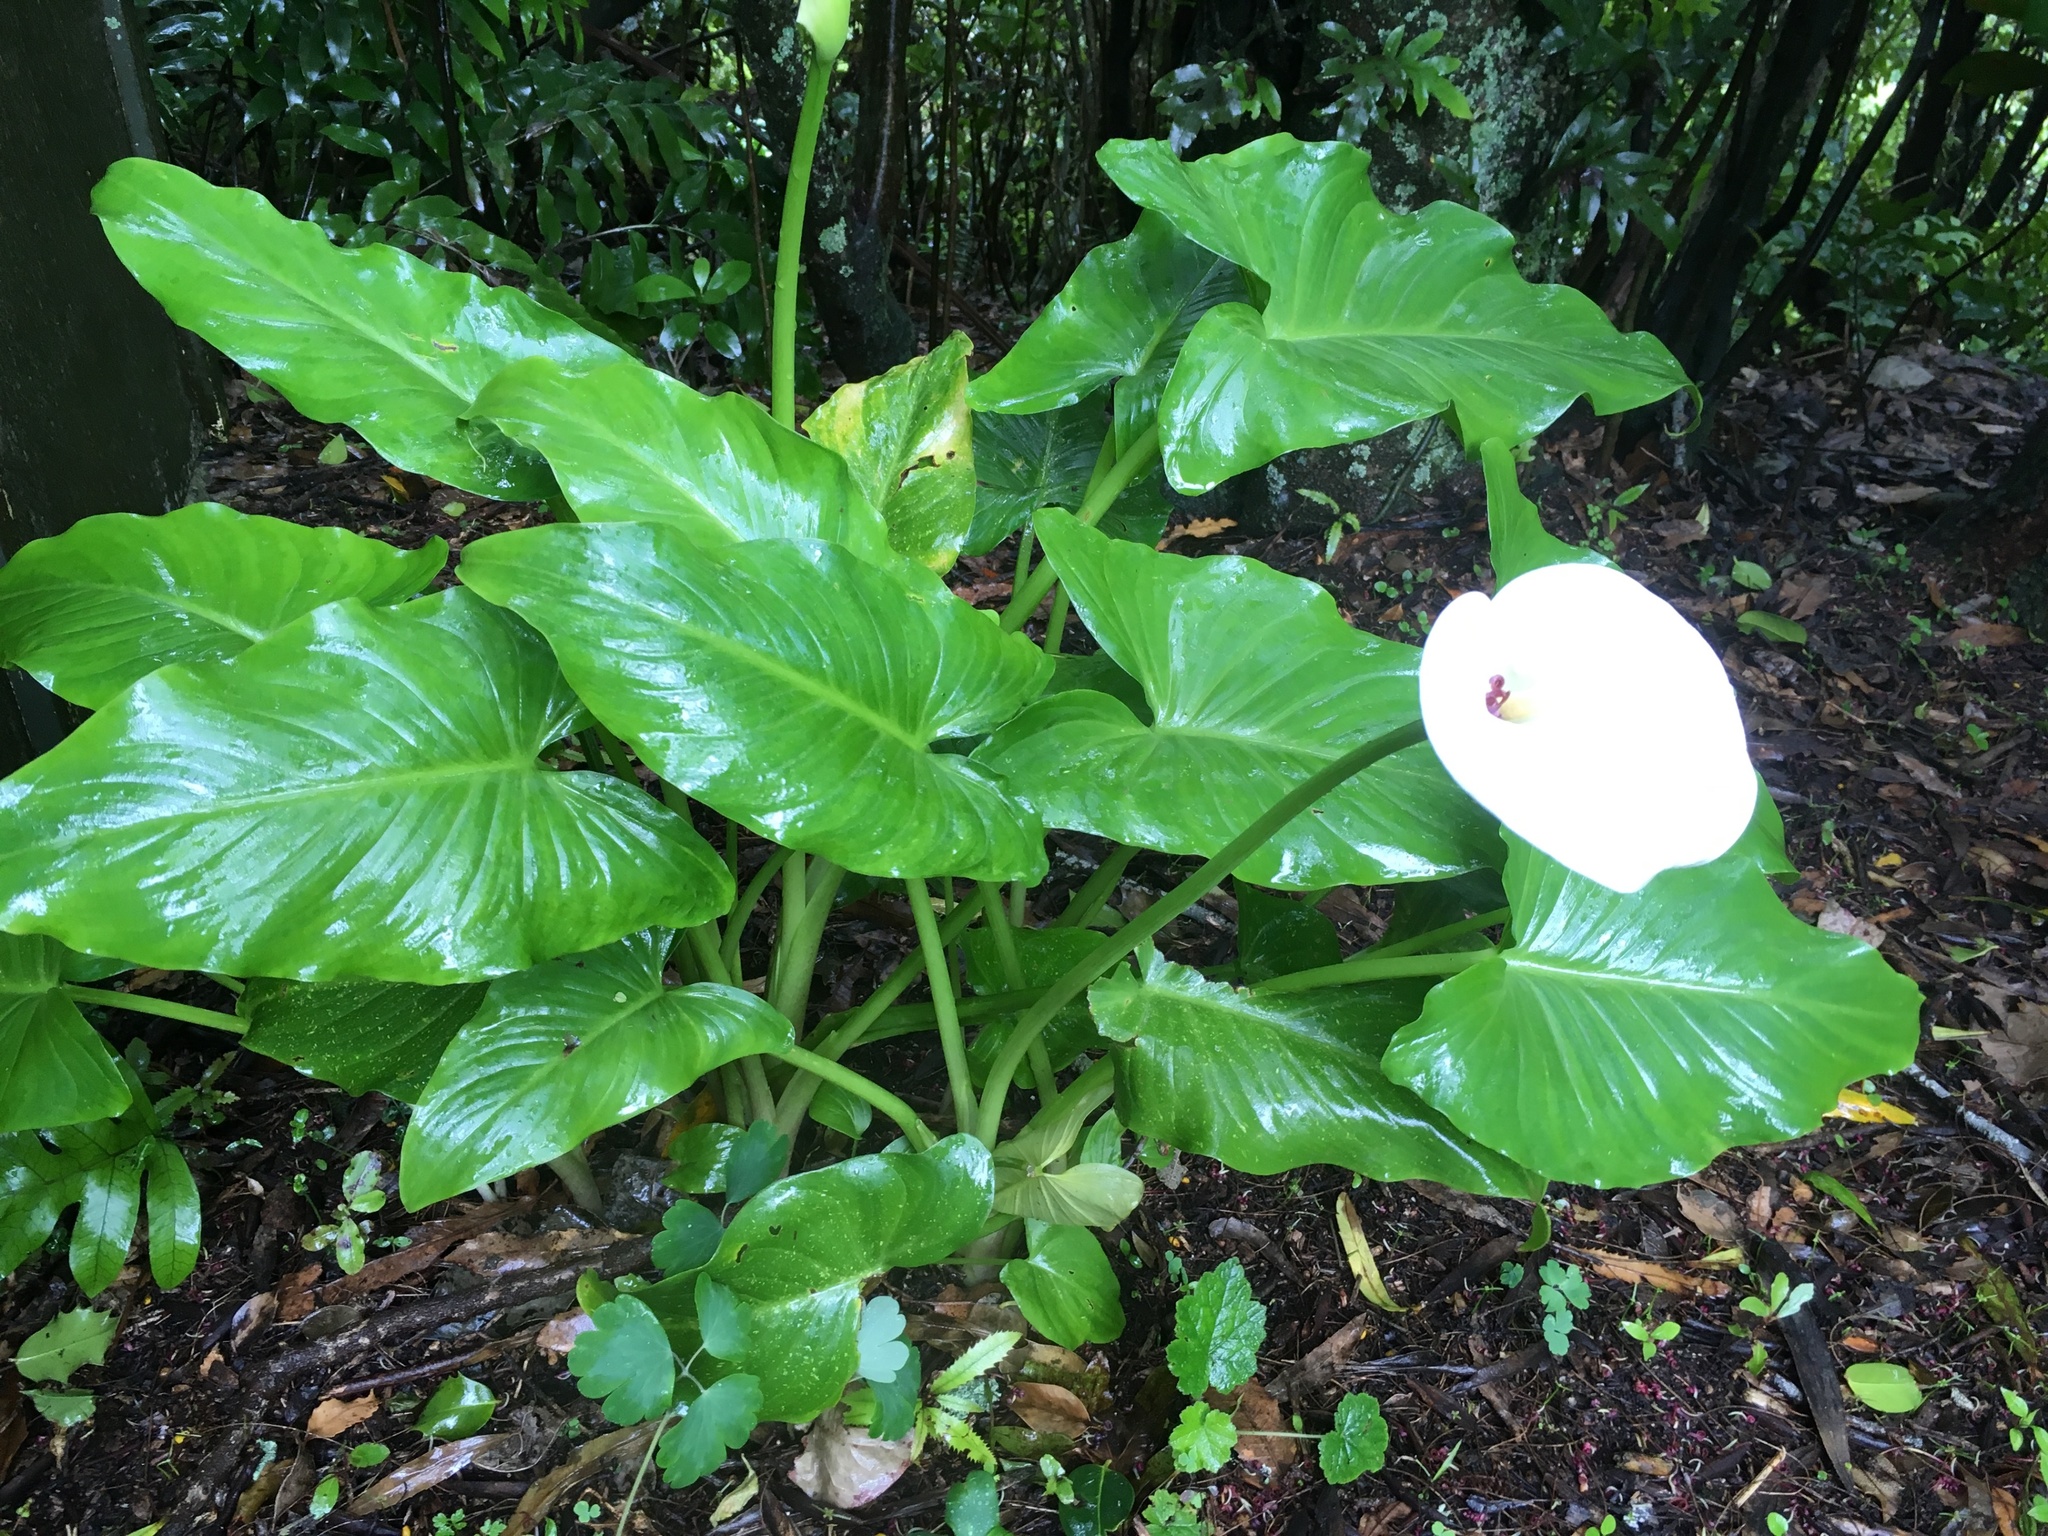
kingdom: Plantae
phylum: Tracheophyta
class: Liliopsida
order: Alismatales
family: Araceae
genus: Zantedeschia
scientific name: Zantedeschia aethiopica
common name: Altar-lily
